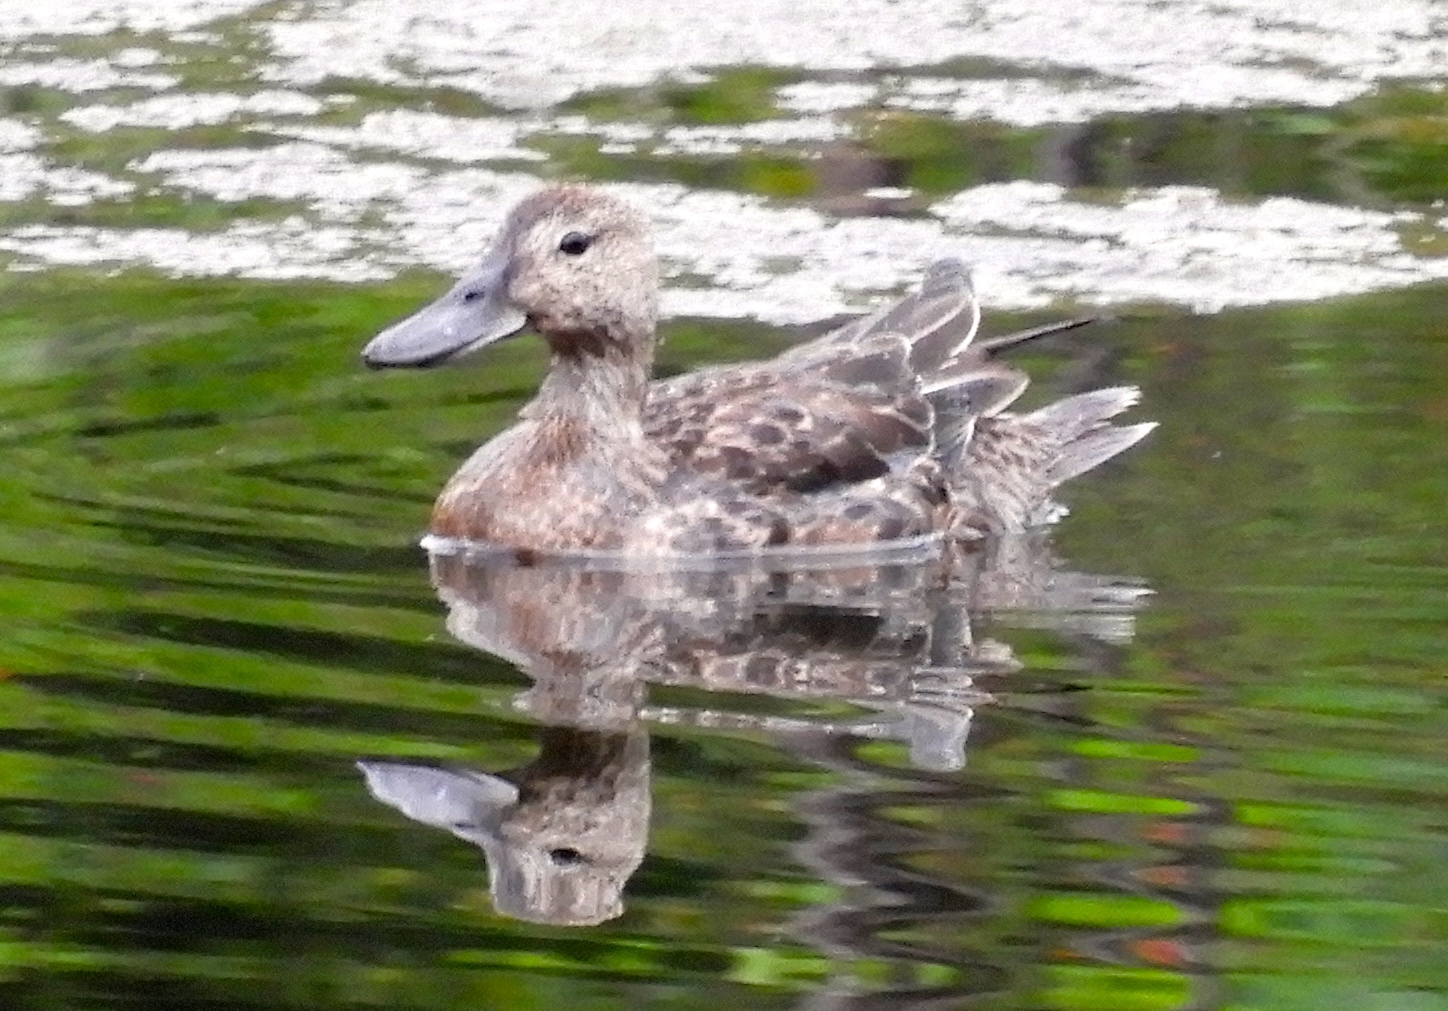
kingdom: Animalia
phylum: Chordata
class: Aves
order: Anseriformes
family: Anatidae
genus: Spatula
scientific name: Spatula clypeata
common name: Northern shoveler
